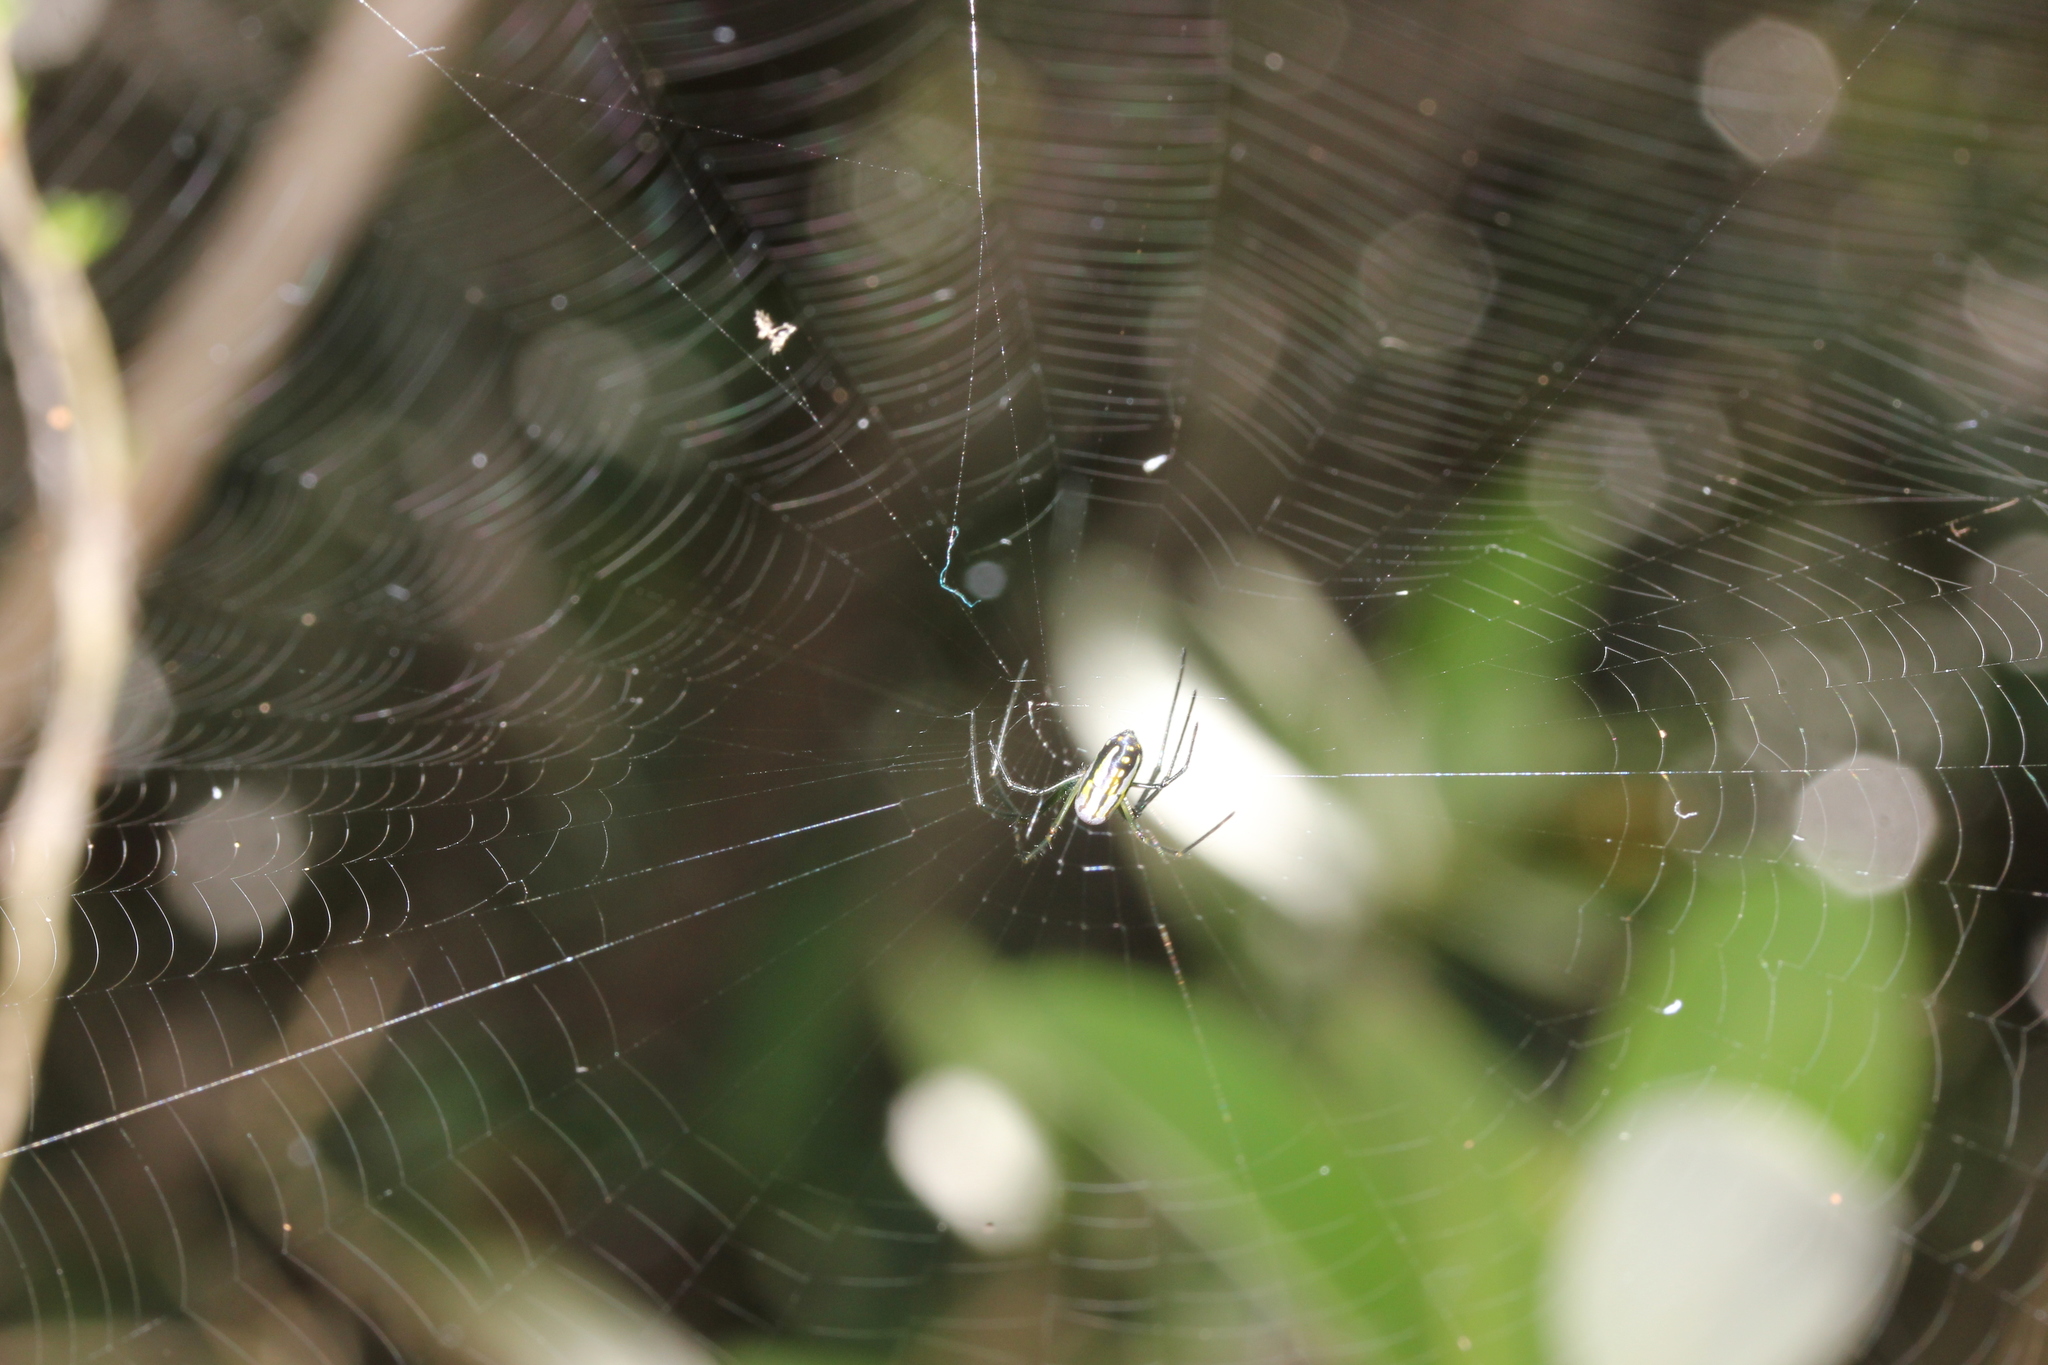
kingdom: Animalia
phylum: Arthropoda
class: Arachnida
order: Araneae
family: Tetragnathidae
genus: Leucauge
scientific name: Leucauge argyra
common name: Longjawed orb weavers
